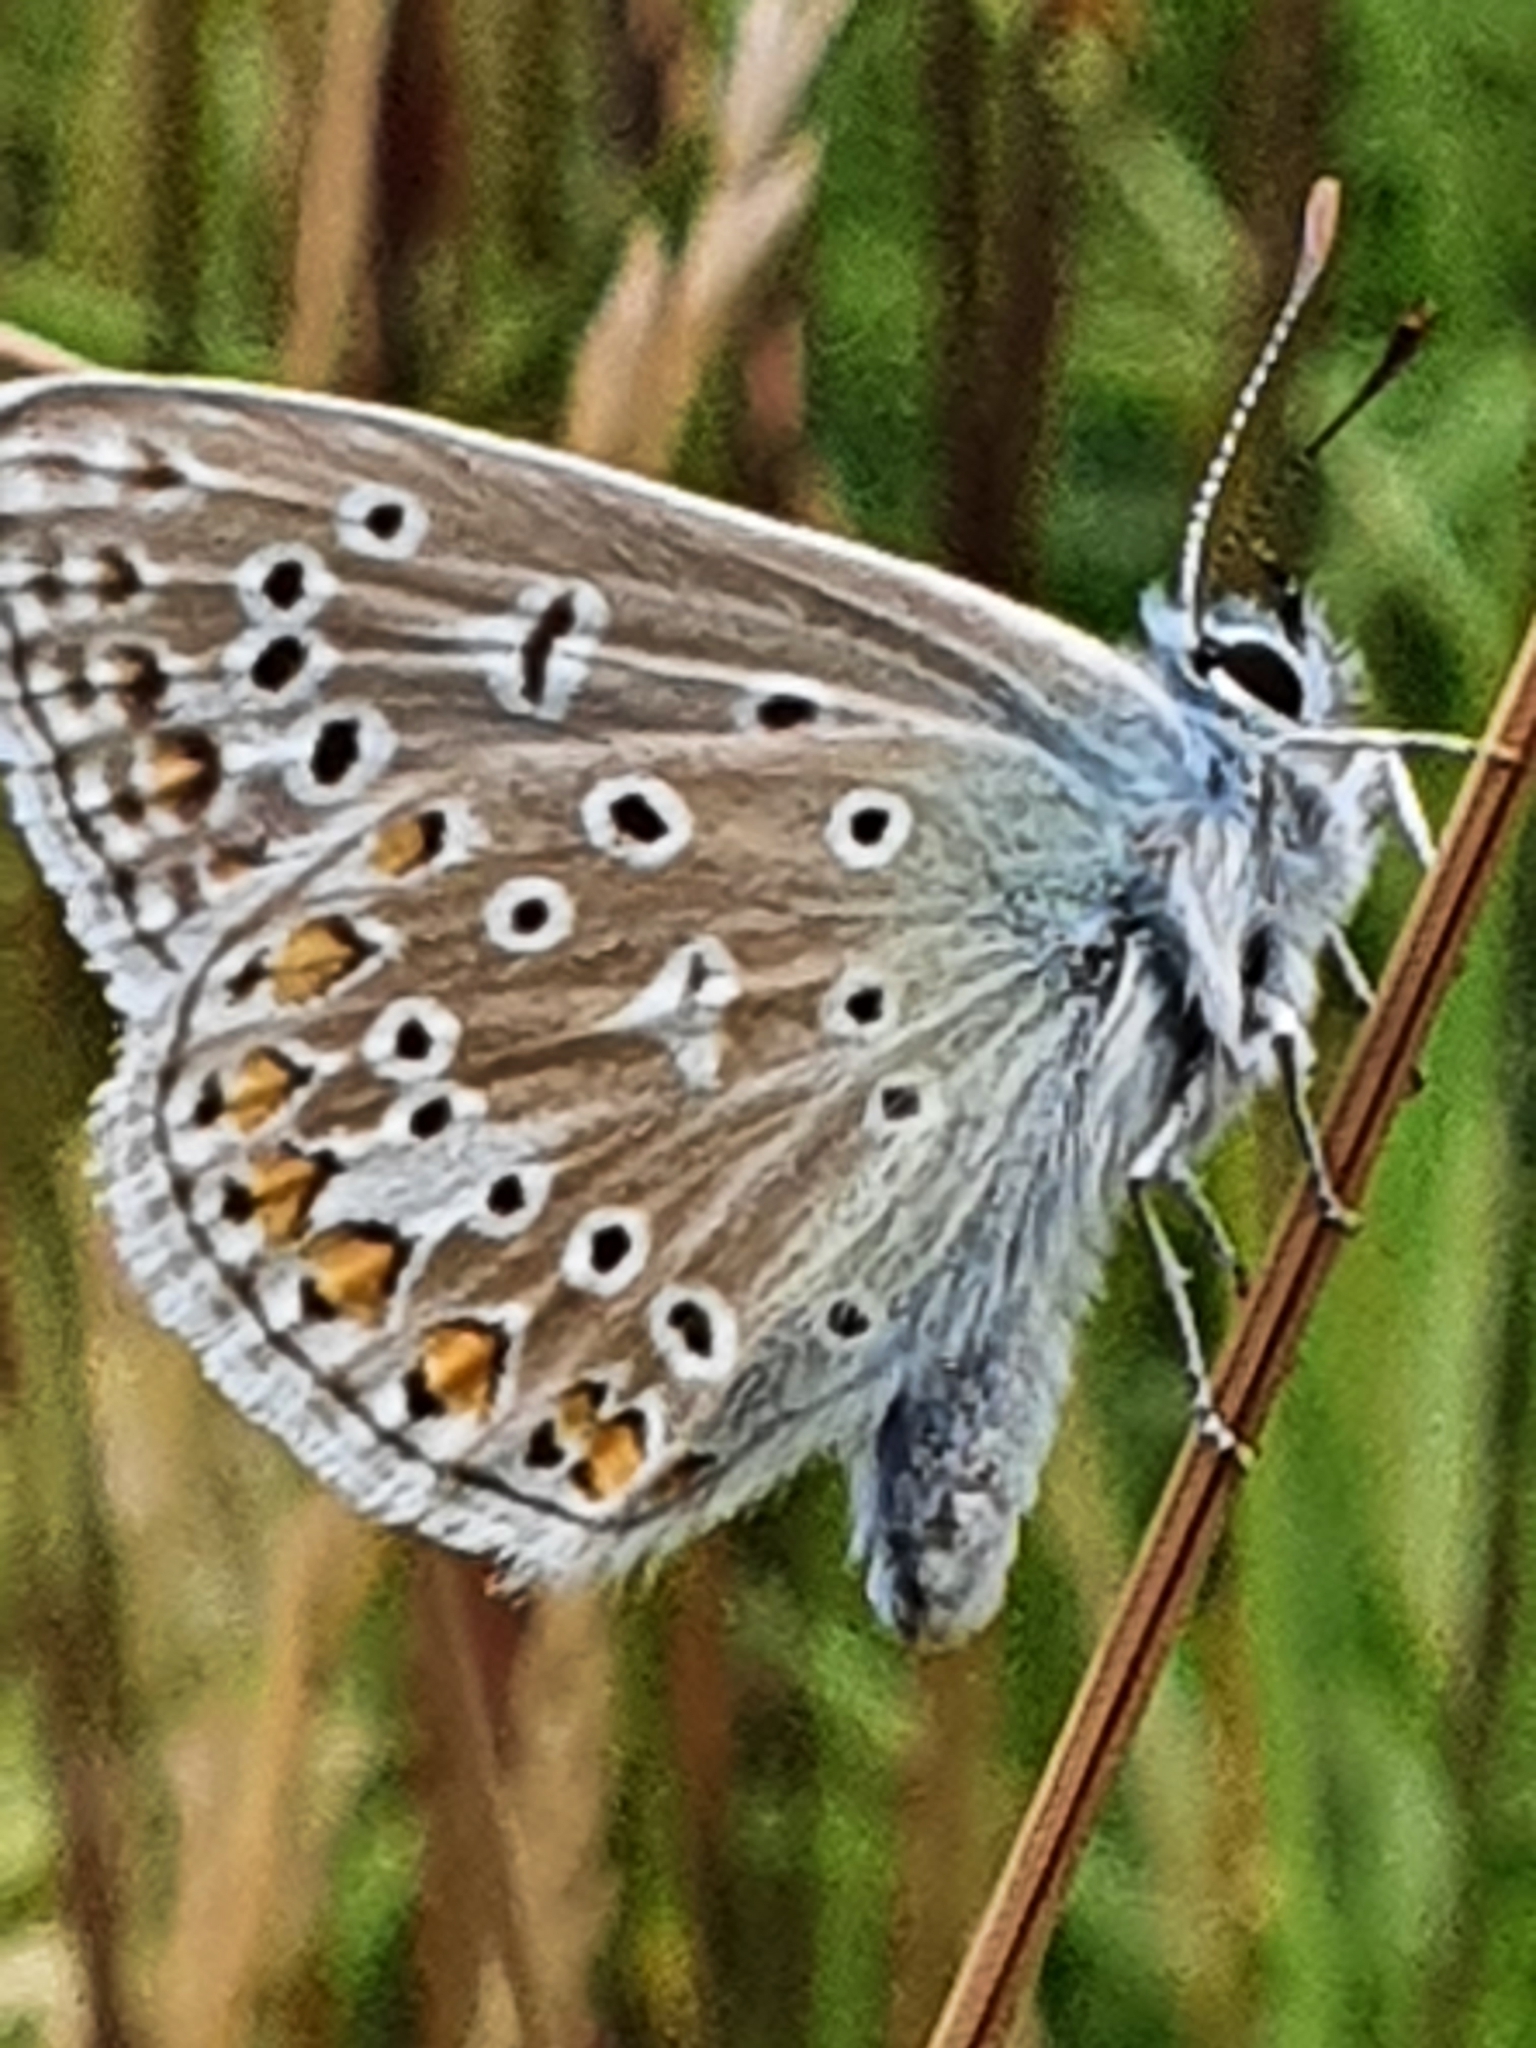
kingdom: Animalia
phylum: Arthropoda
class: Insecta
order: Lepidoptera
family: Lycaenidae
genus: Polyommatus
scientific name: Polyommatus icarus
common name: Common blue
